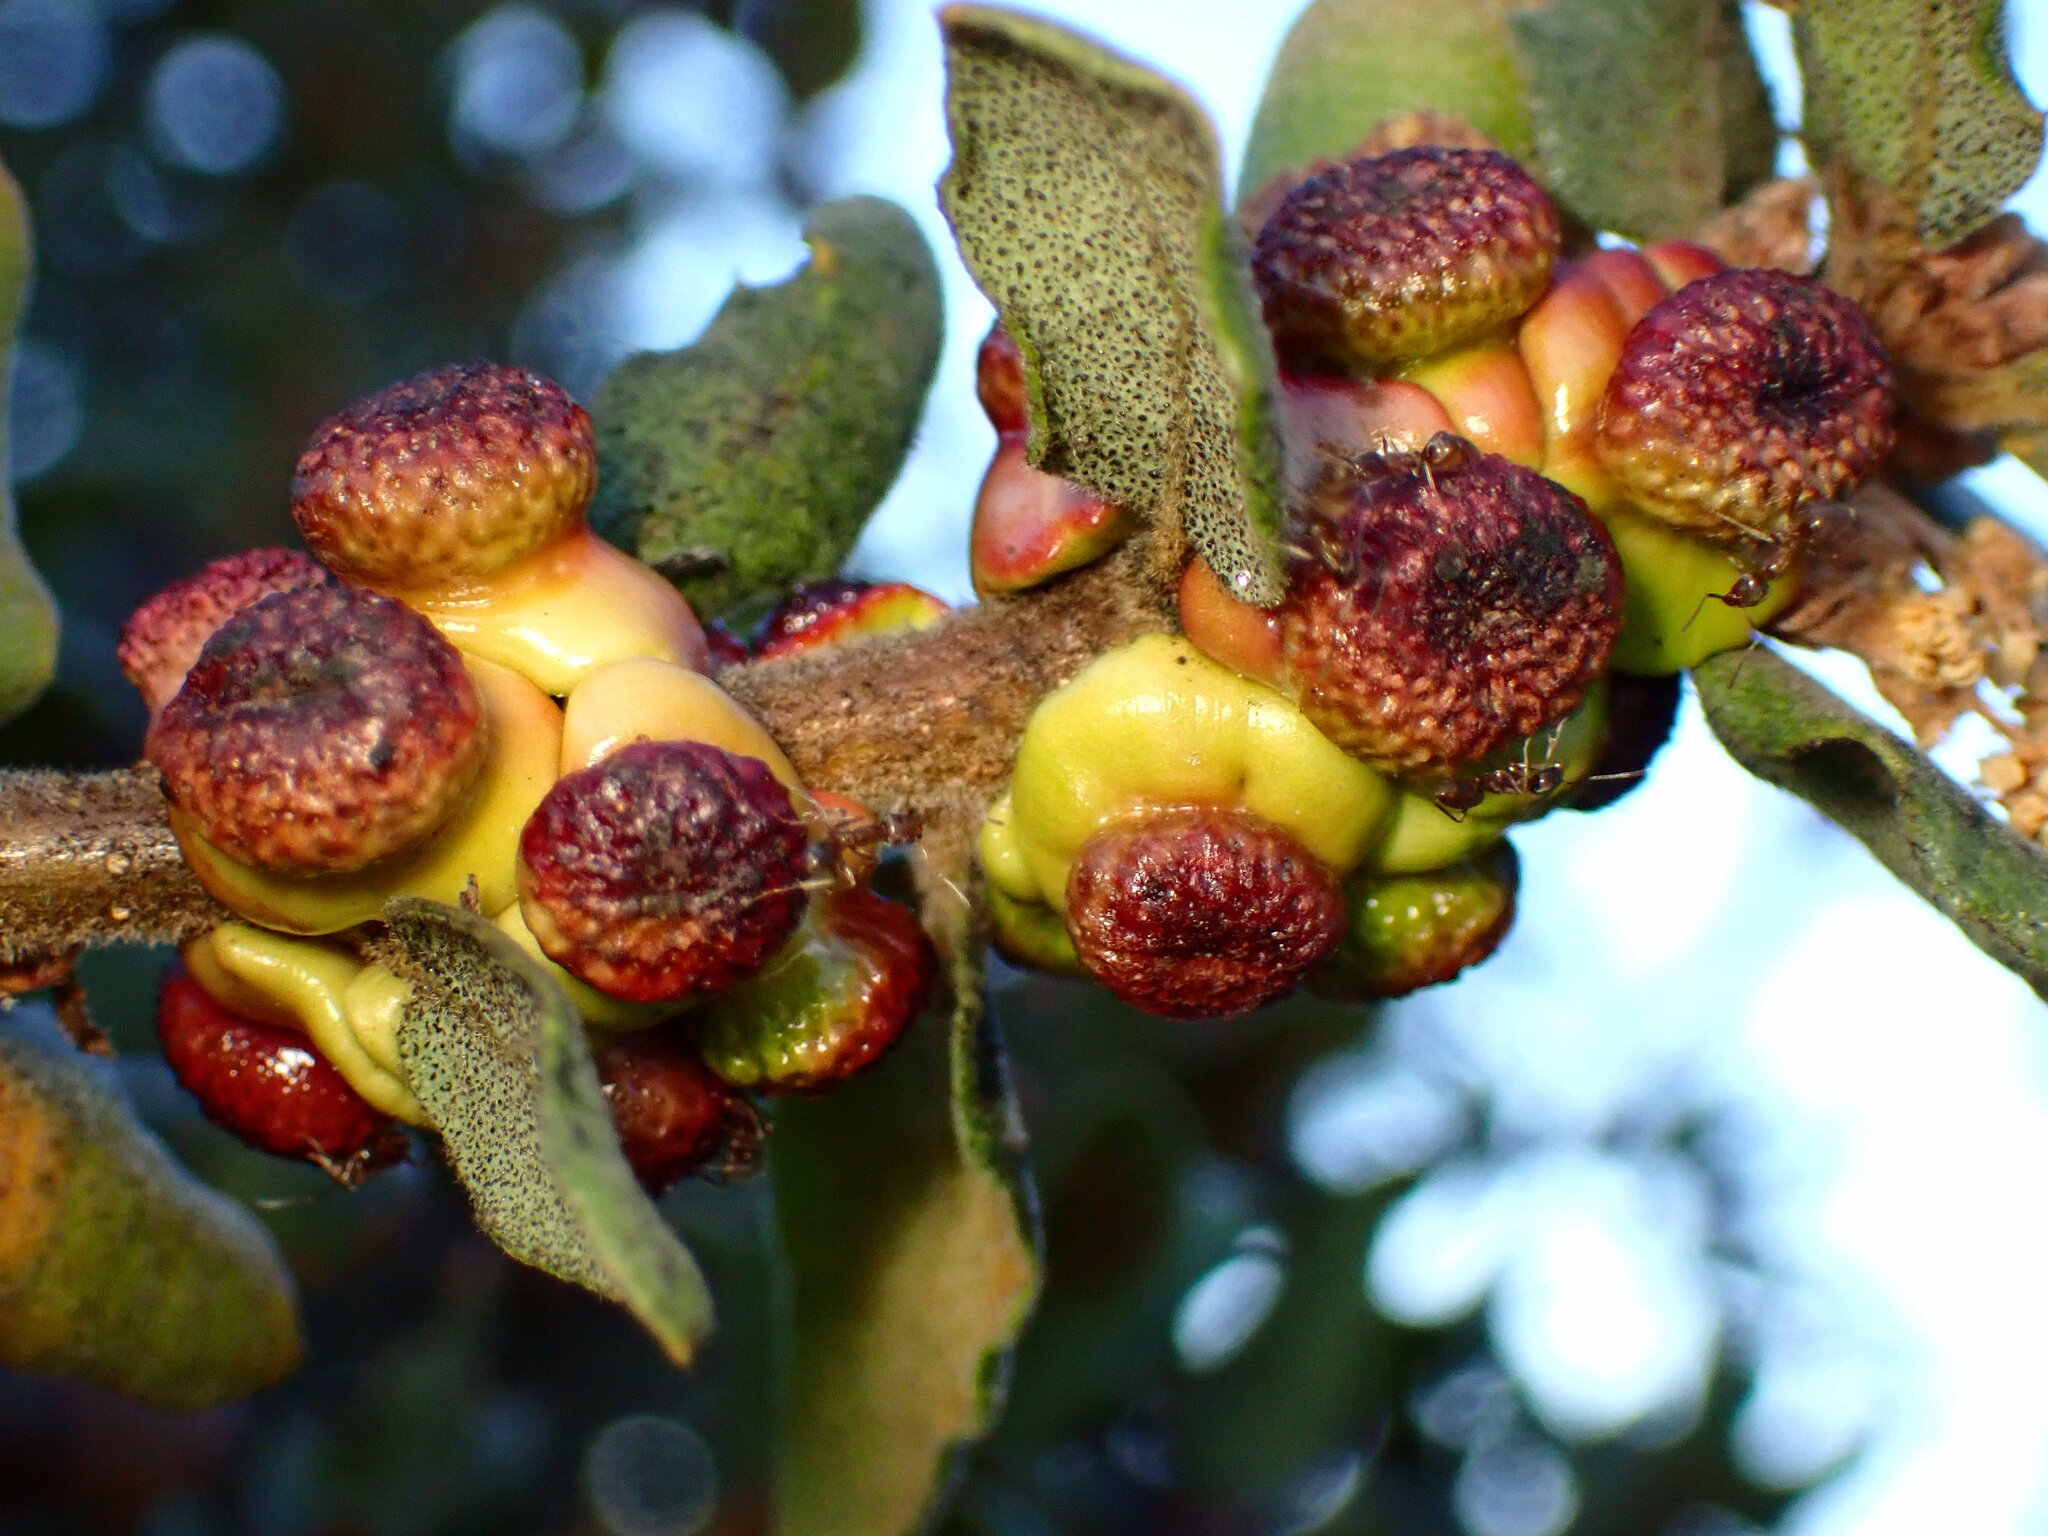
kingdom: Animalia
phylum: Arthropoda
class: Insecta
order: Hymenoptera
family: Cynipidae
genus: Disholcaspis
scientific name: Disholcaspis prehensa
